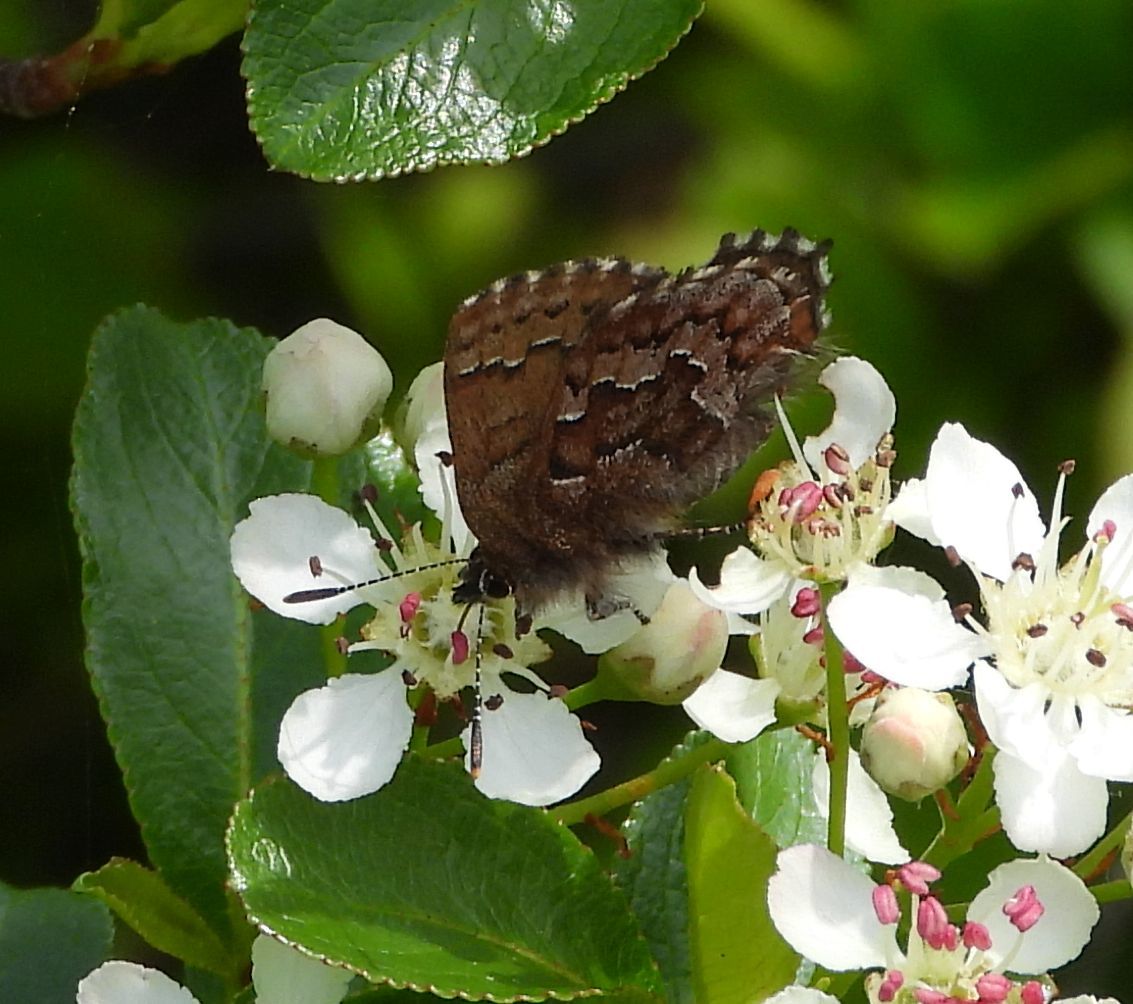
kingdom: Animalia
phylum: Arthropoda
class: Insecta
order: Lepidoptera
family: Lycaenidae
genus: Incisalia
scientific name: Incisalia niphon
